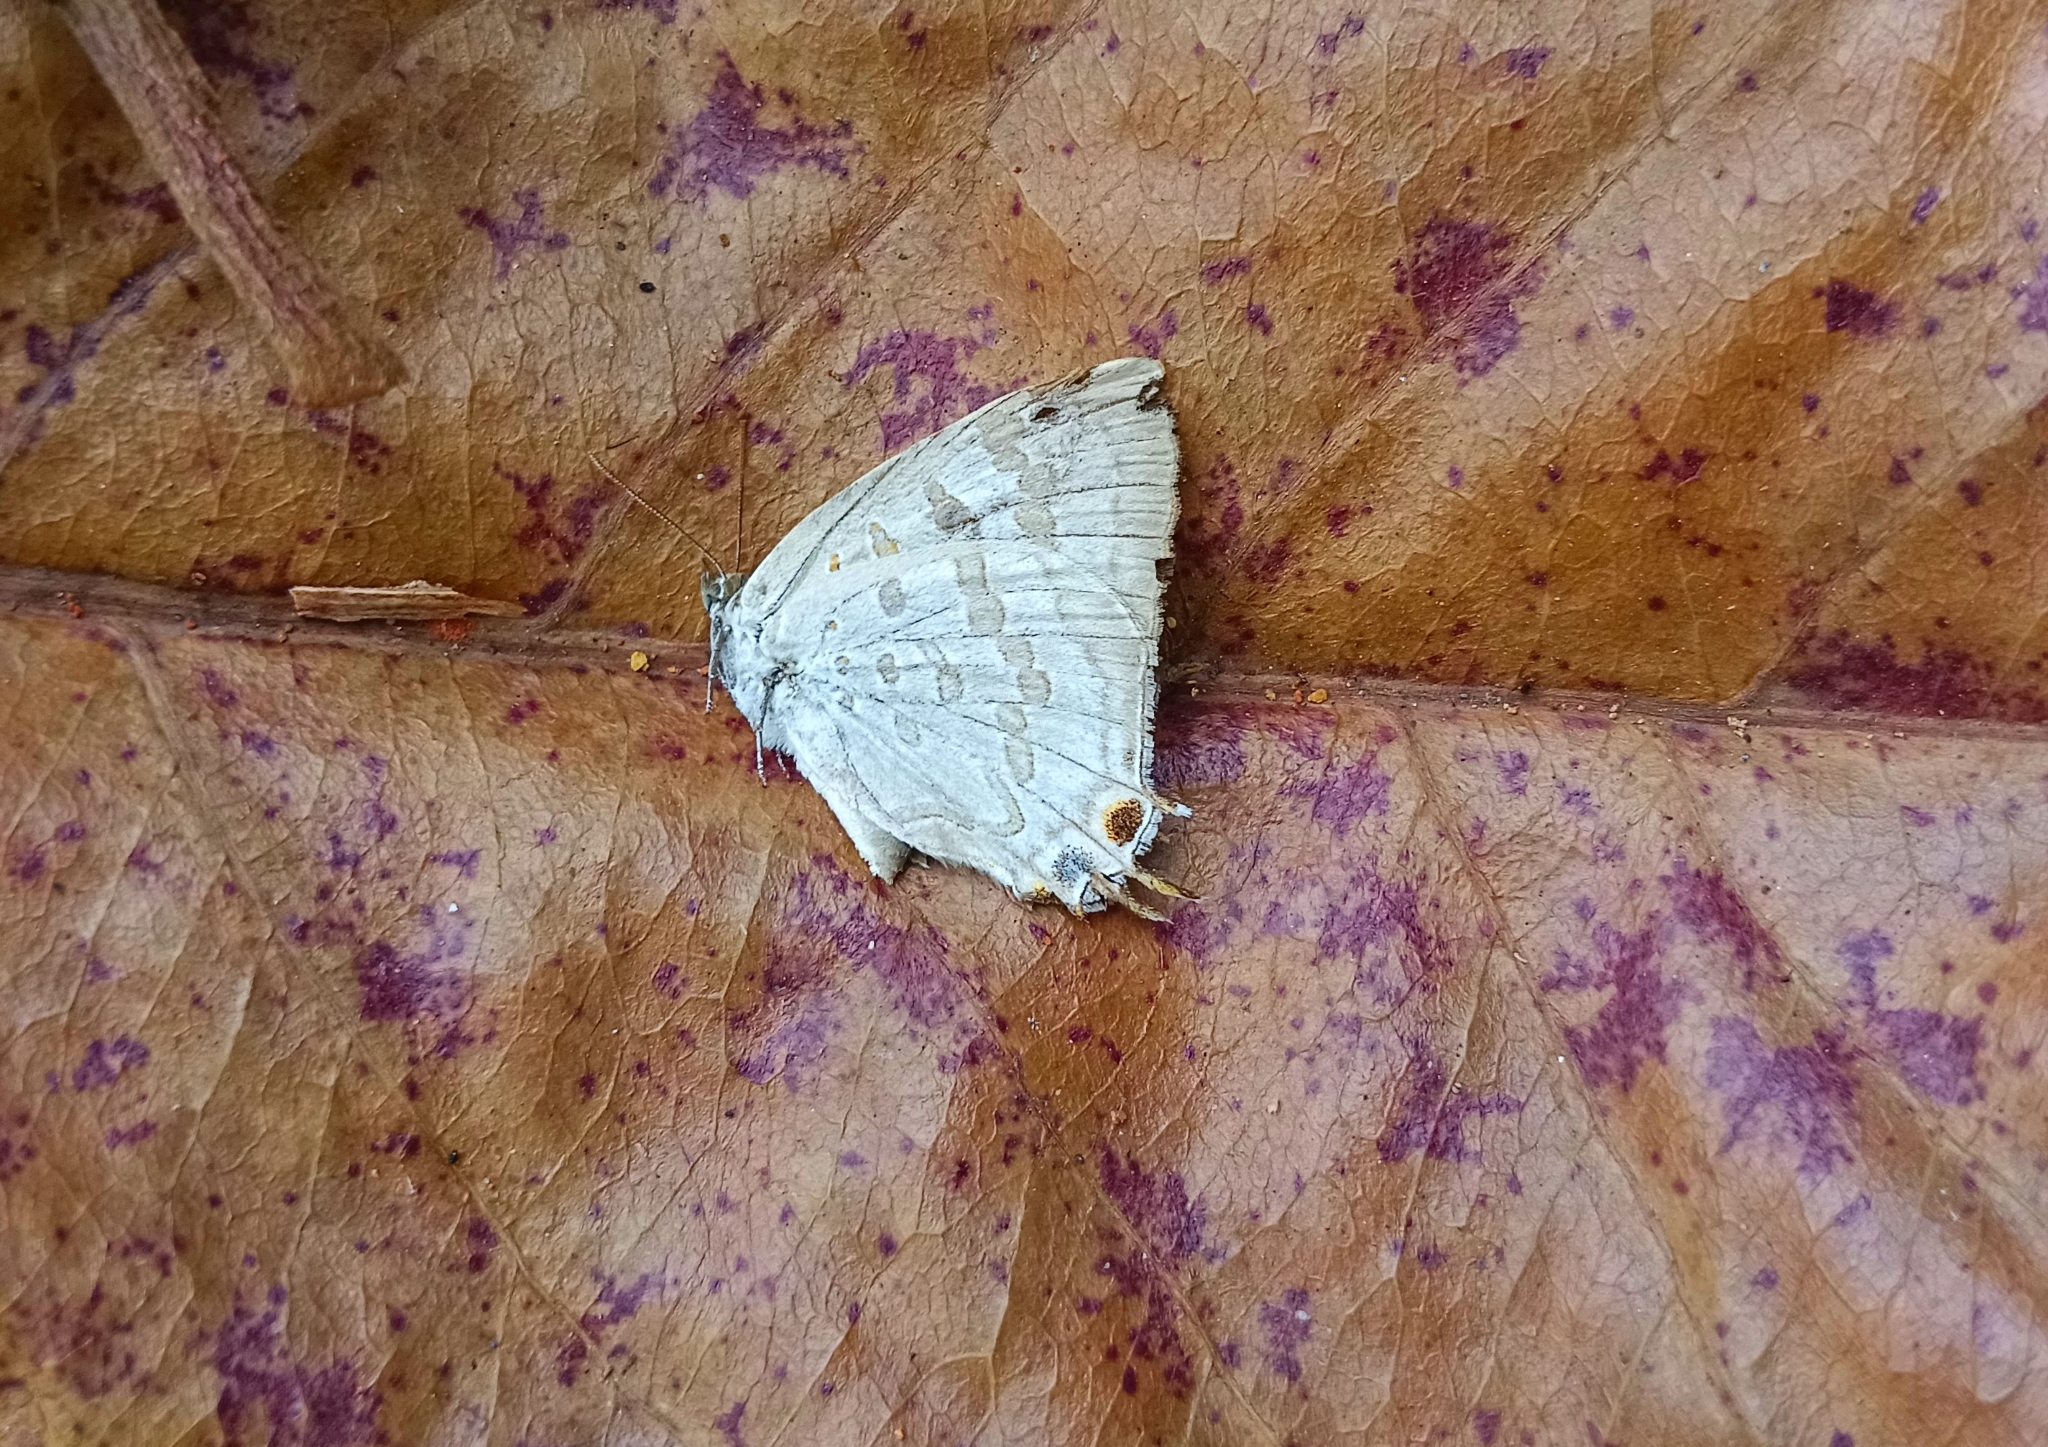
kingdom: Animalia
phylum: Arthropoda
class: Insecta
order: Lepidoptera
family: Lycaenidae
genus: Zesius
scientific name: Zesius chrysomallus
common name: Redspot
